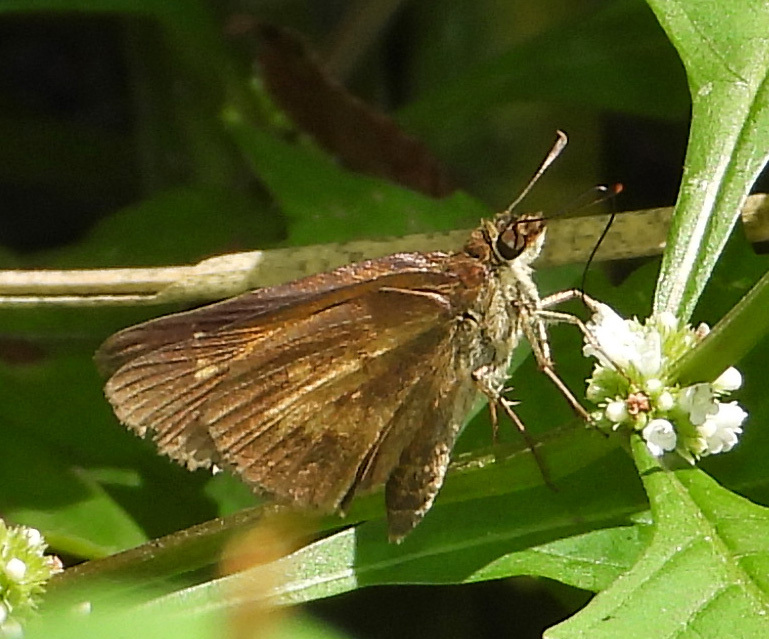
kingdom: Animalia
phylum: Arthropoda
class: Insecta
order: Lepidoptera
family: Hesperiidae
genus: Poanes
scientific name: Poanes viator
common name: Broad-winged skipper
